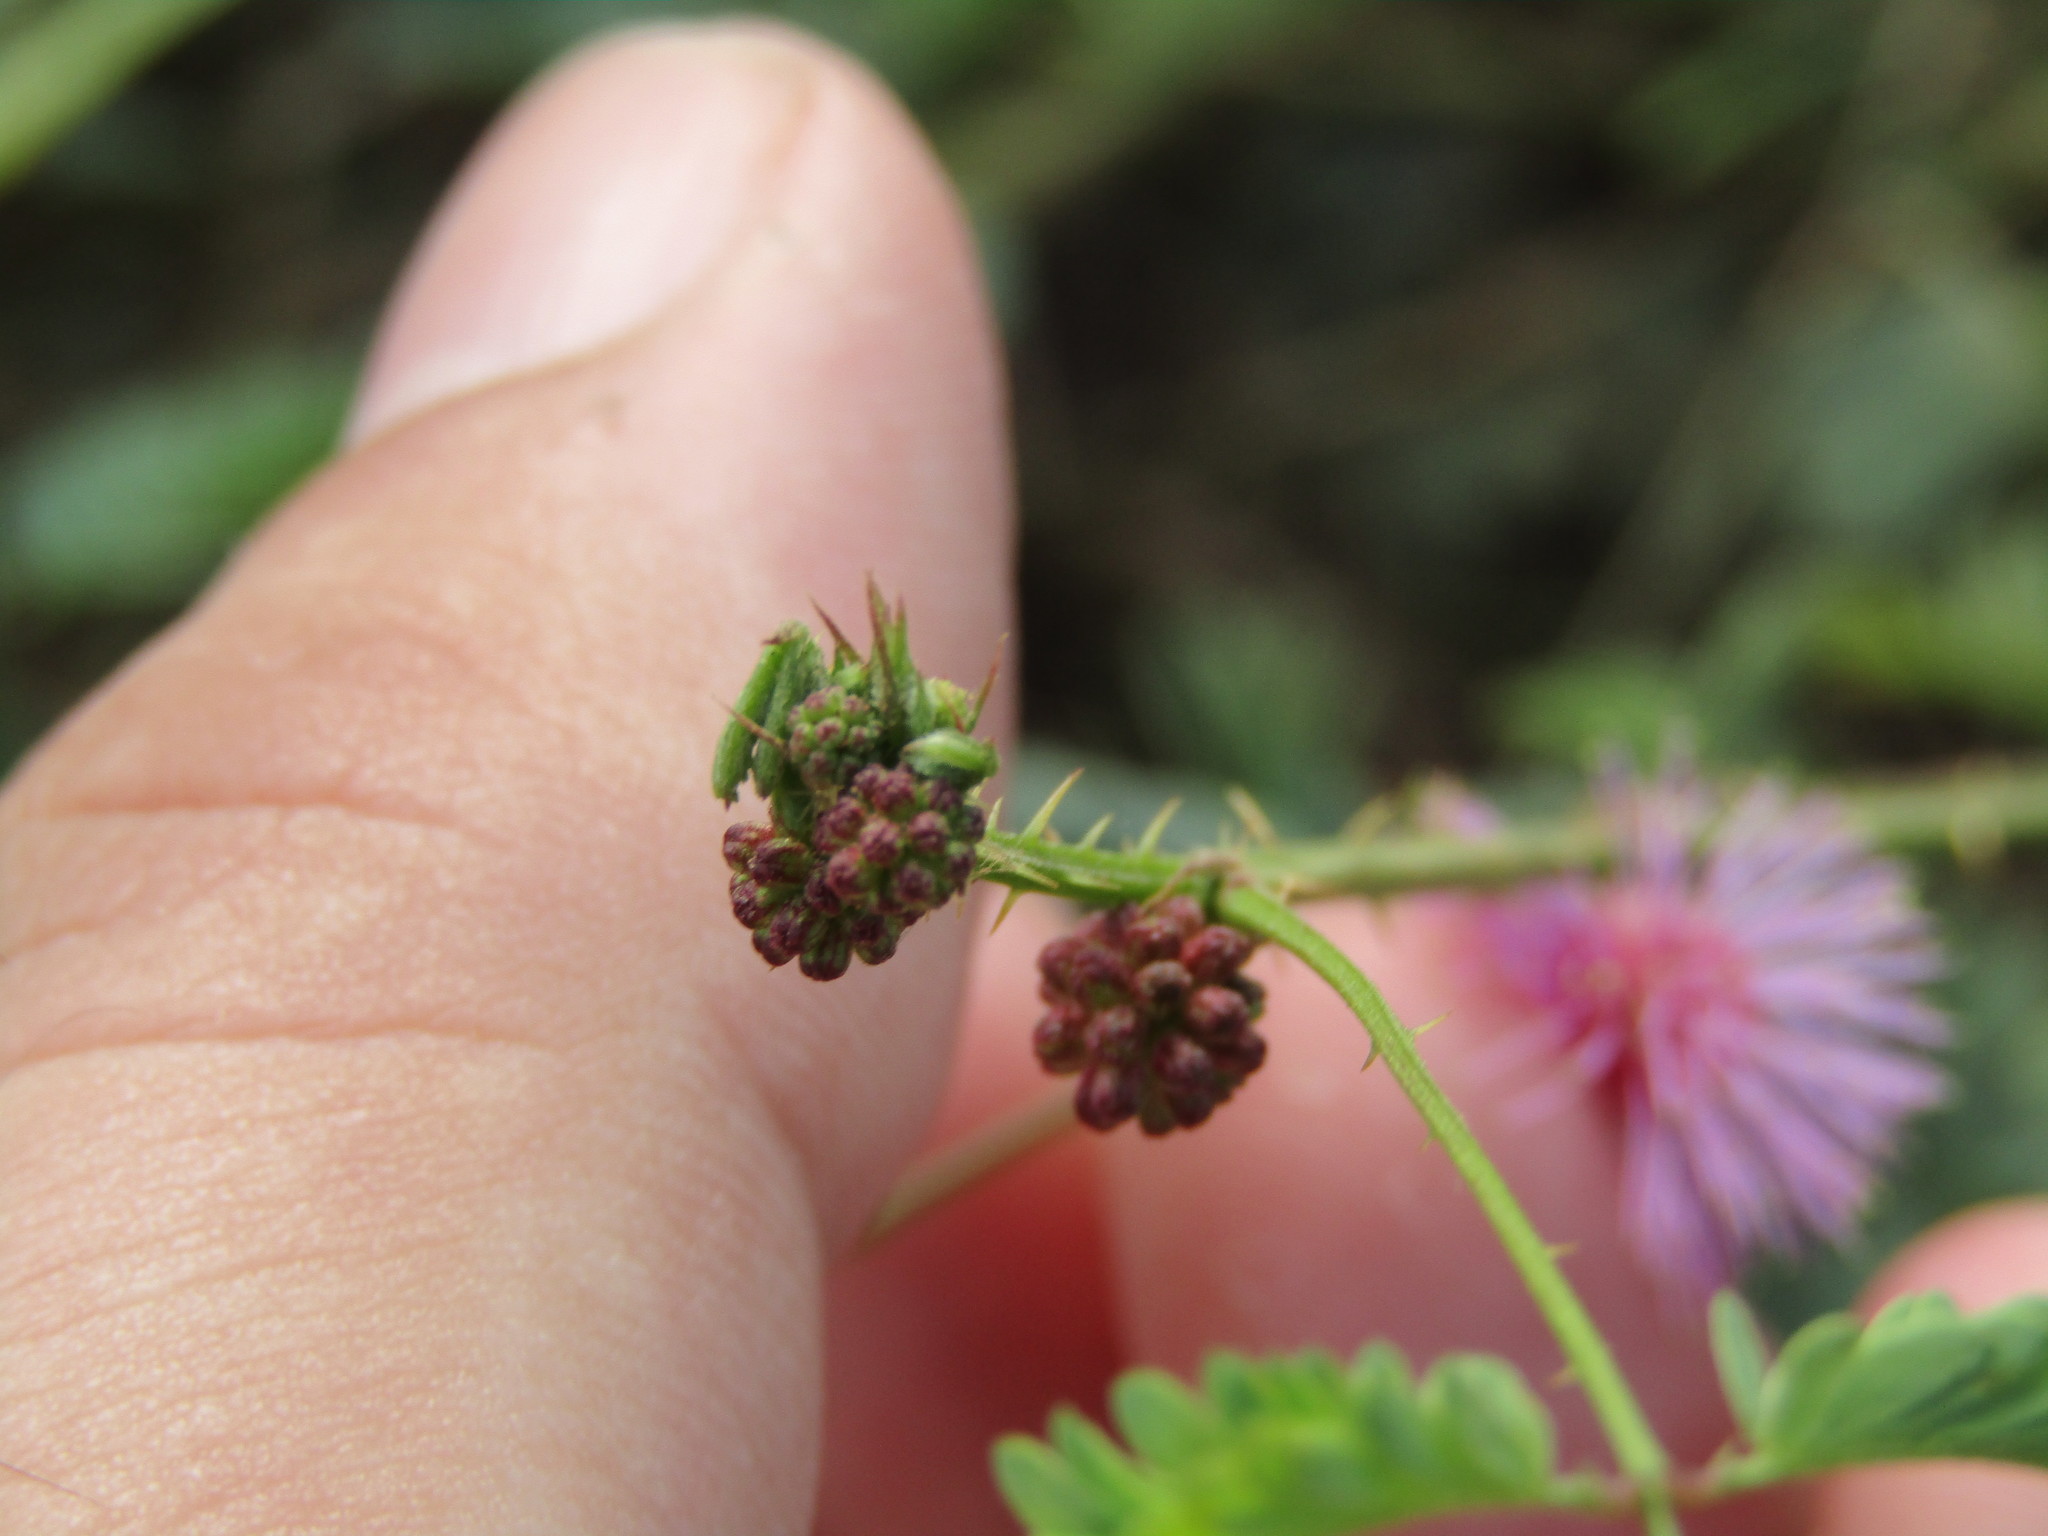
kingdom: Plantae
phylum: Tracheophyta
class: Magnoliopsida
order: Fabales
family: Fabaceae
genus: Mimosa
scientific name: Mimosa candollei
